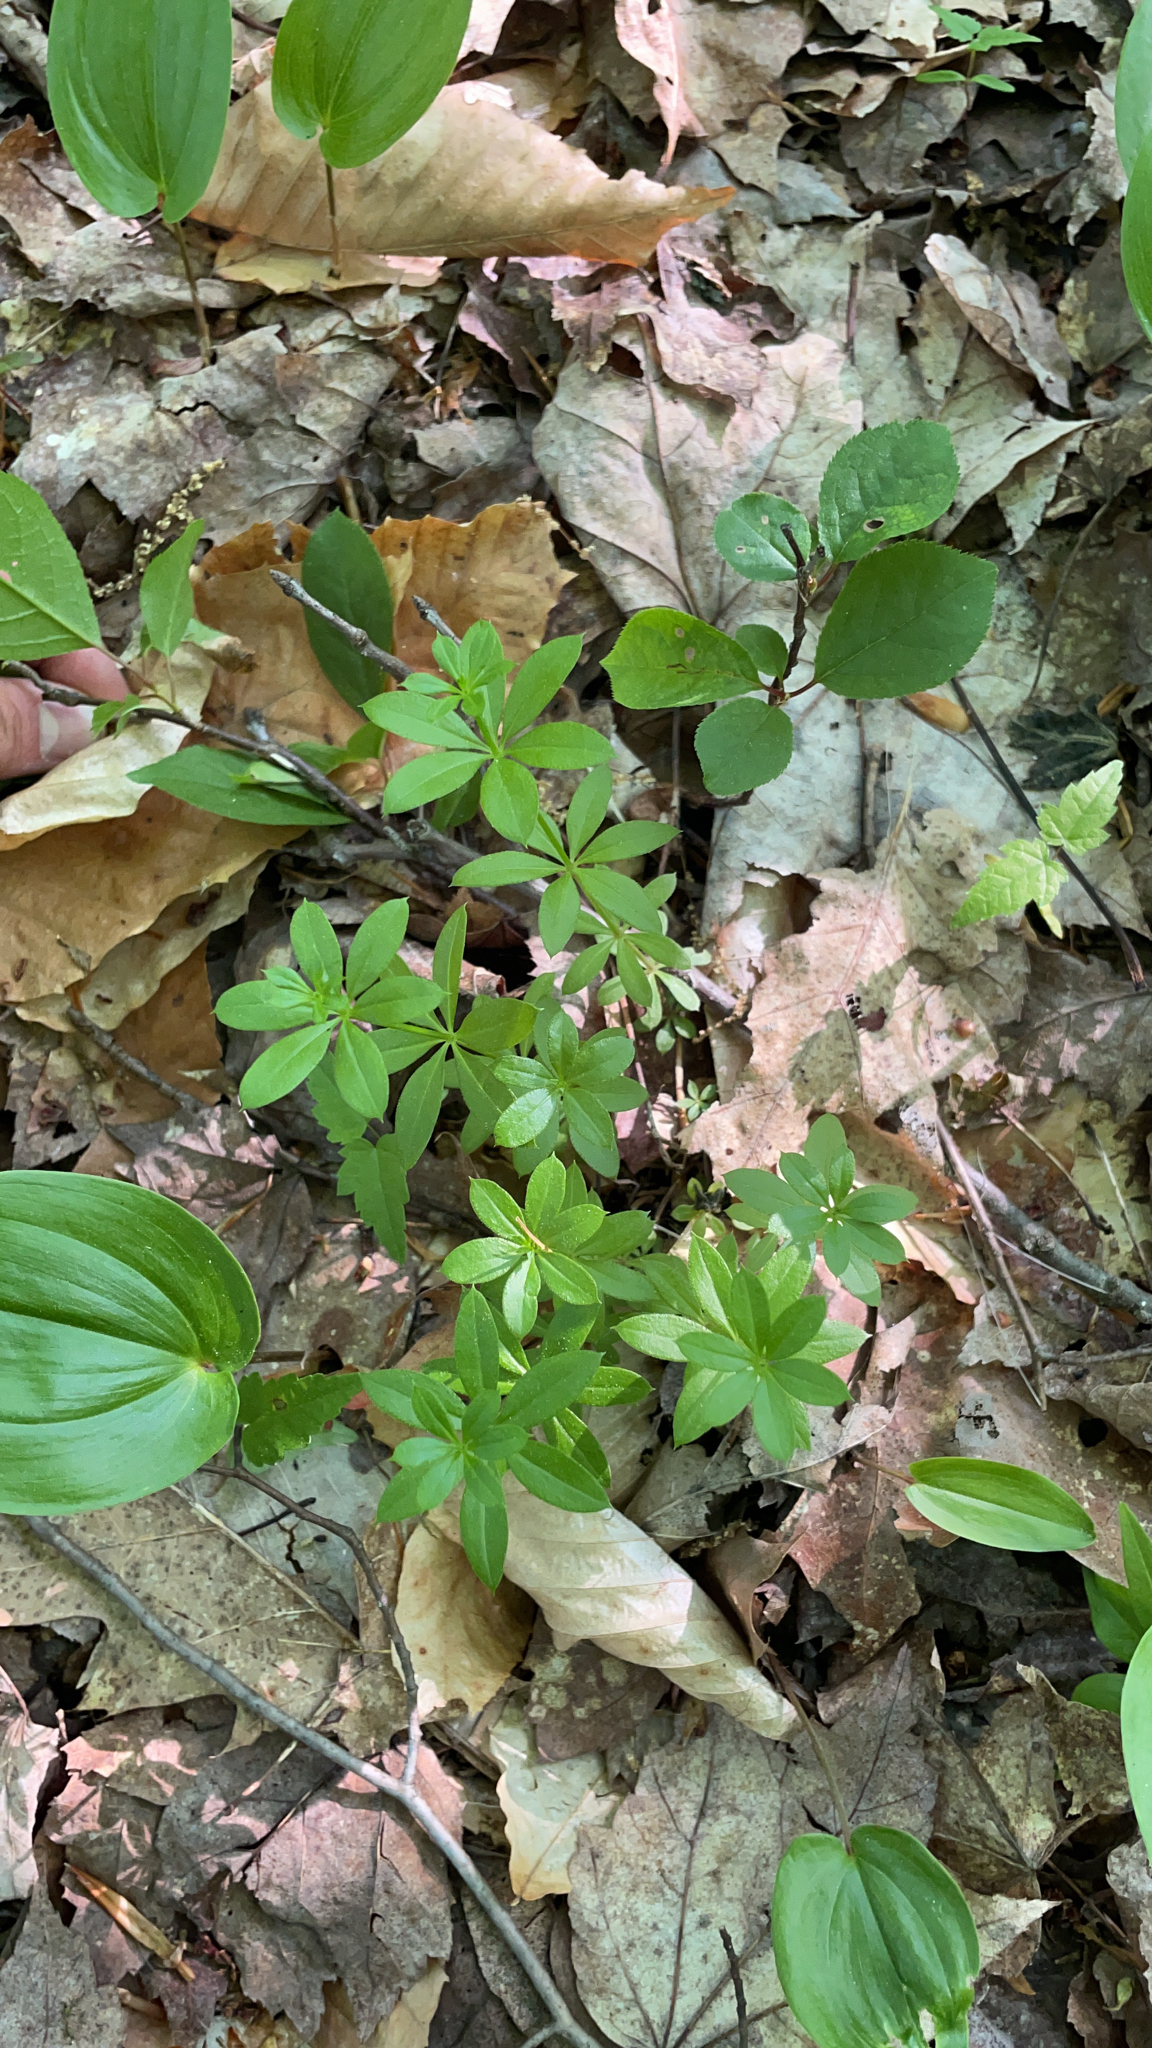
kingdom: Plantae
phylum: Tracheophyta
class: Magnoliopsida
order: Gentianales
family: Rubiaceae
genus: Galium
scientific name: Galium triflorum
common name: Fragrant bedstraw
